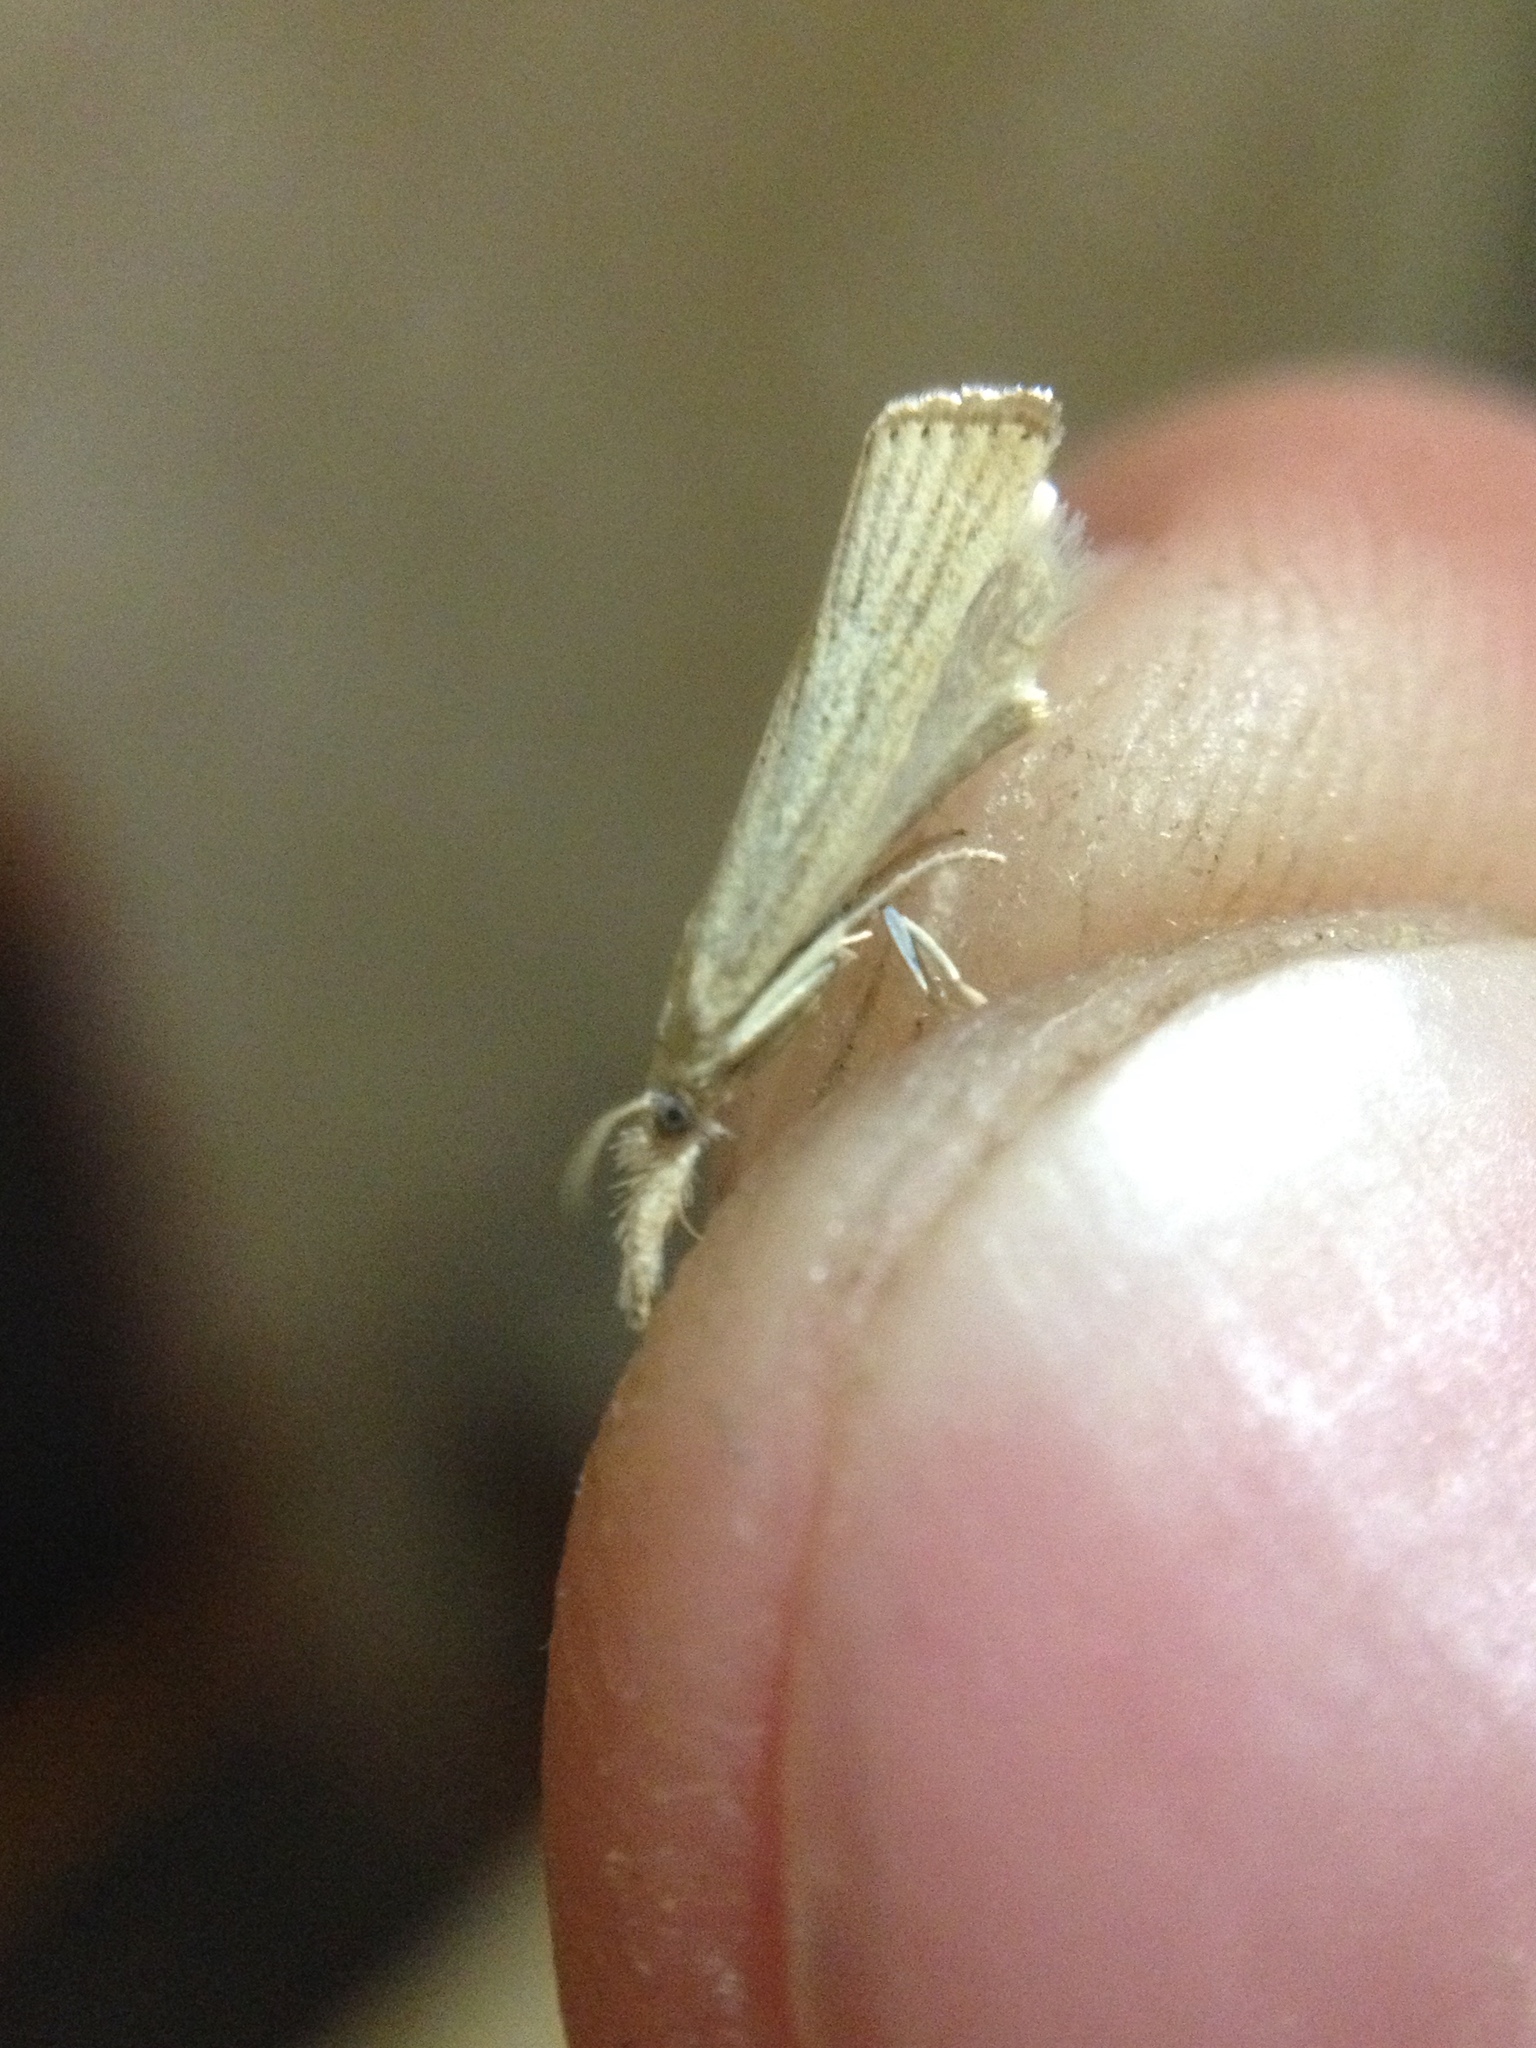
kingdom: Animalia
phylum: Arthropoda
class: Insecta
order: Lepidoptera
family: Crambidae
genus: Agriphila
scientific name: Agriphila straminella
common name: Straw grass-veneer
